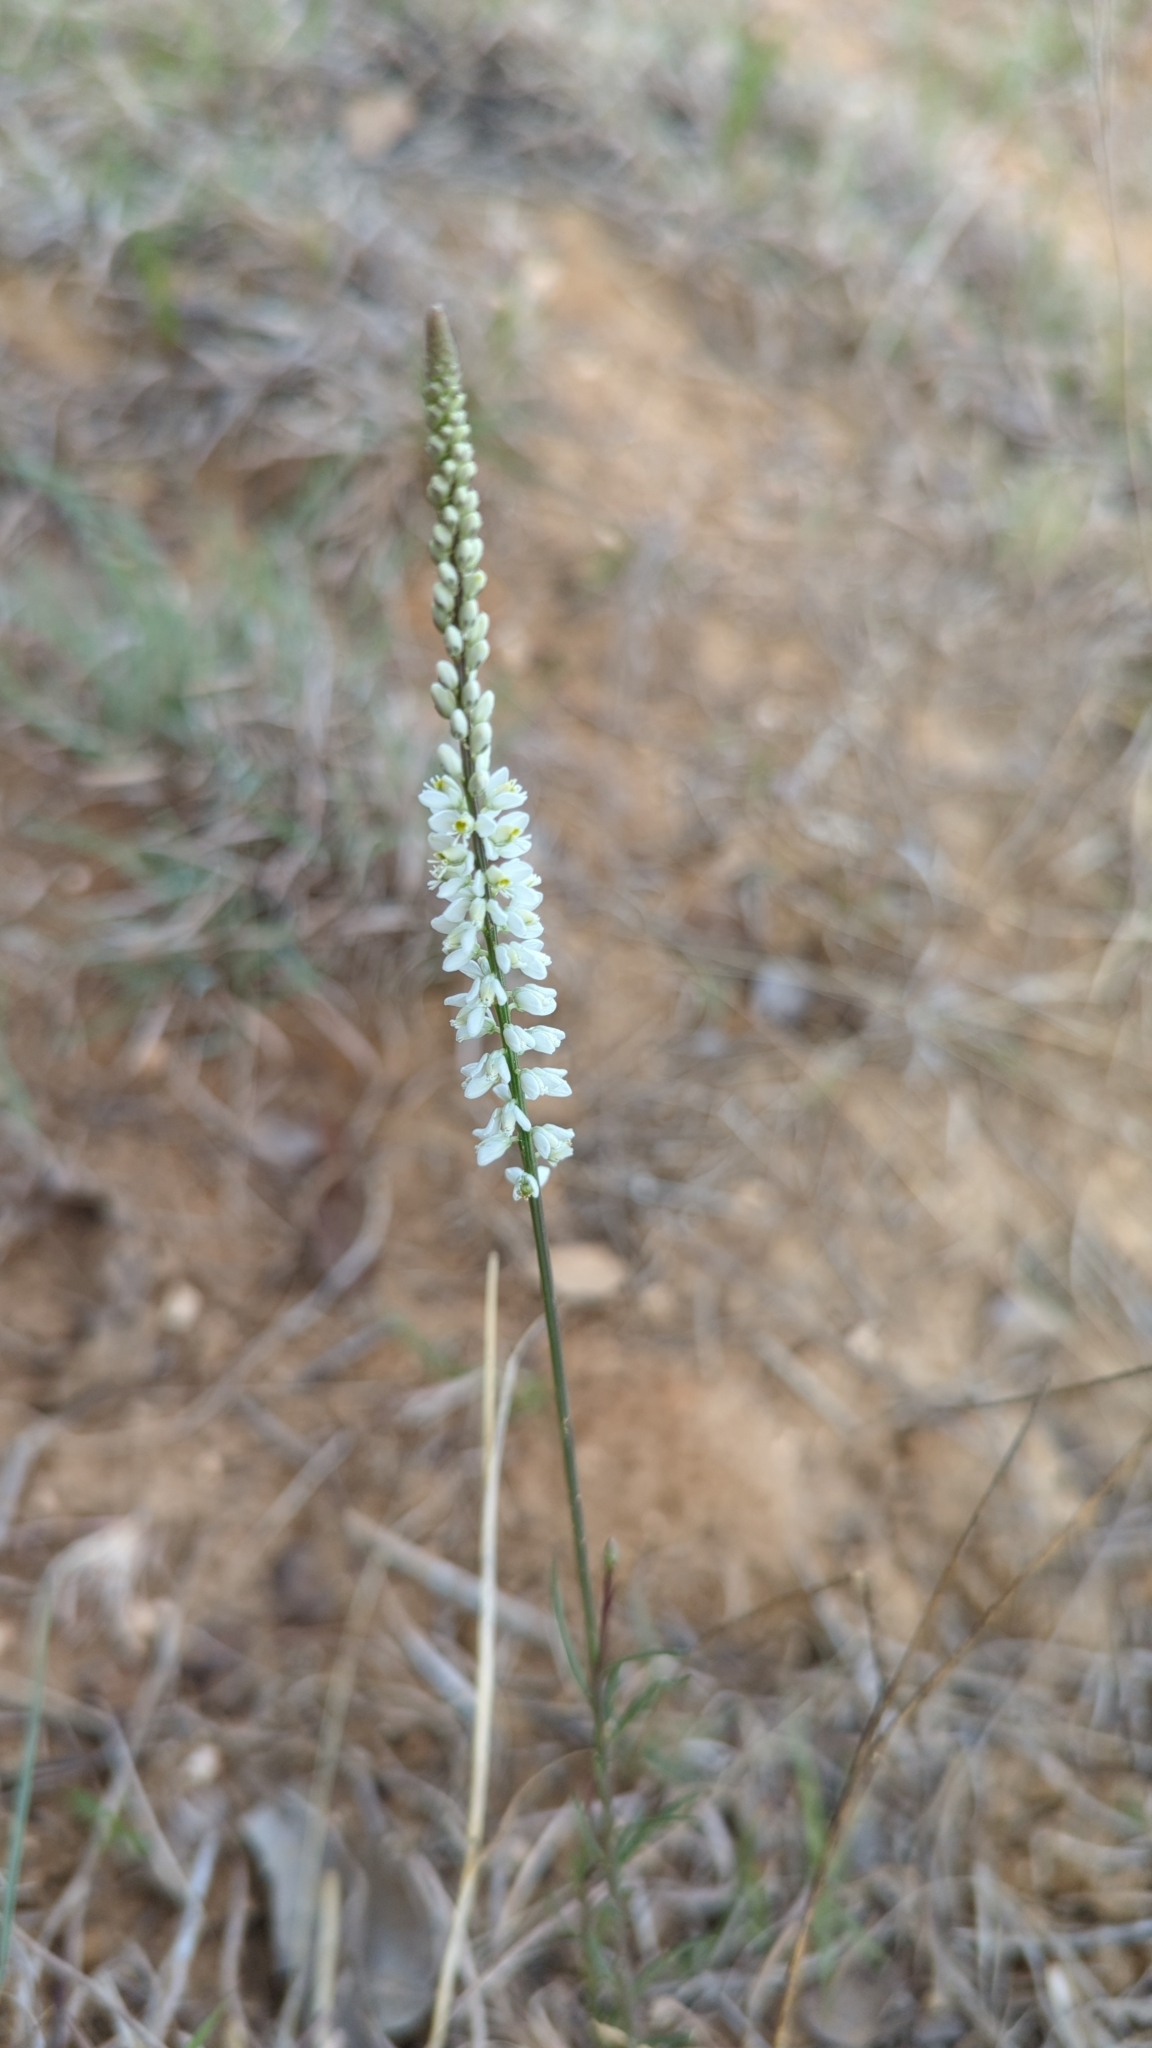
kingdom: Plantae
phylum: Tracheophyta
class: Magnoliopsida
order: Fabales
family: Polygalaceae
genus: Polygala
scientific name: Polygala alba
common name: White milkwort
